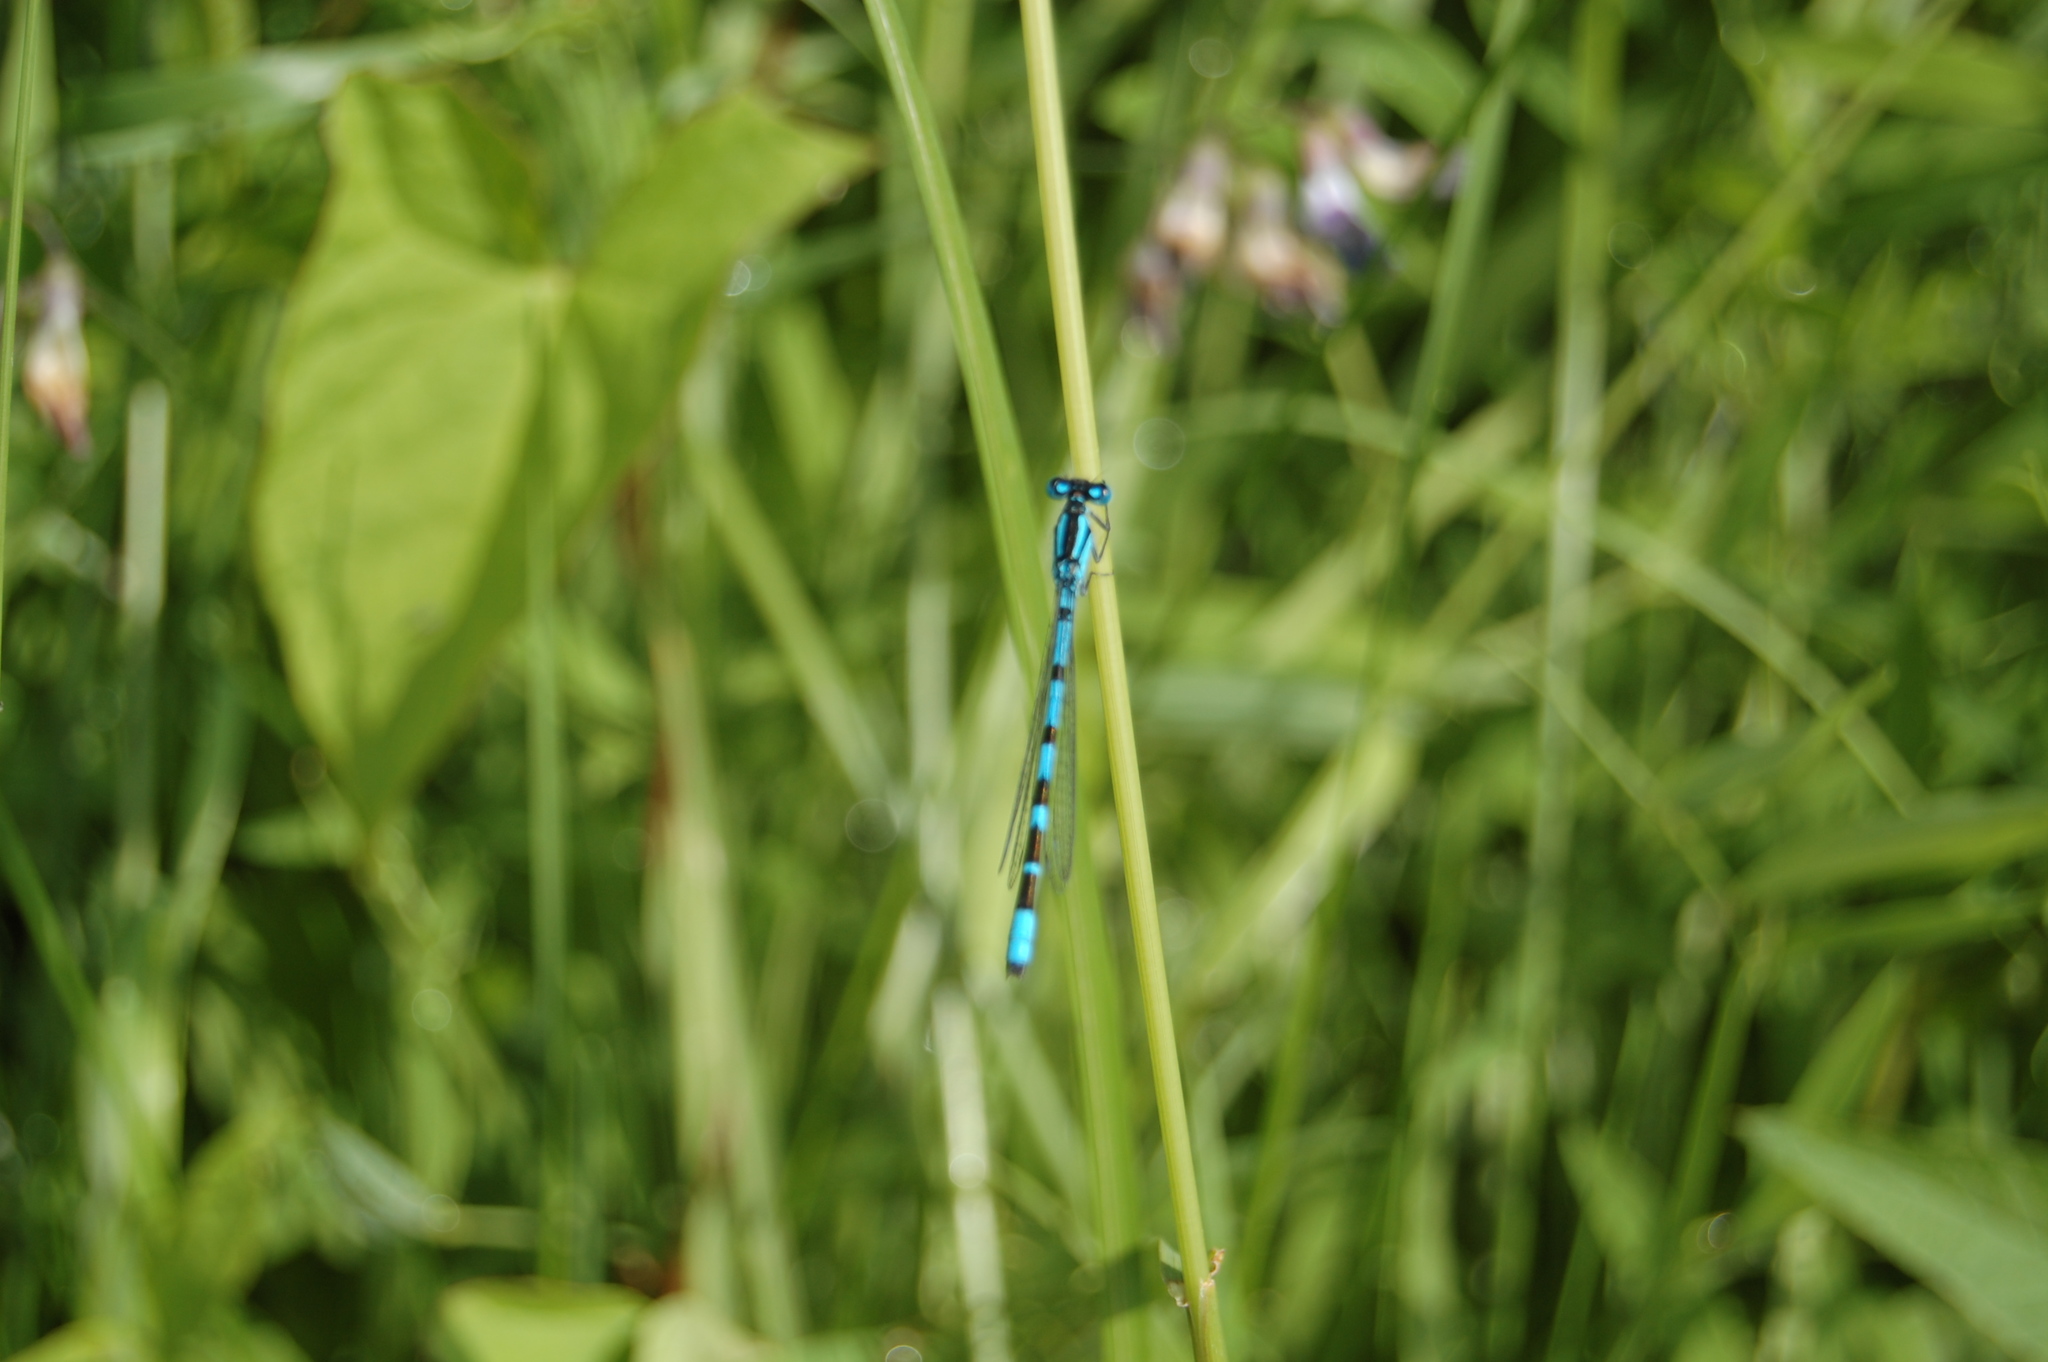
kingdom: Animalia
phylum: Arthropoda
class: Insecta
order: Odonata
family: Coenagrionidae
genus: Enallagma
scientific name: Enallagma cyathigerum
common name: Common blue damselfly
